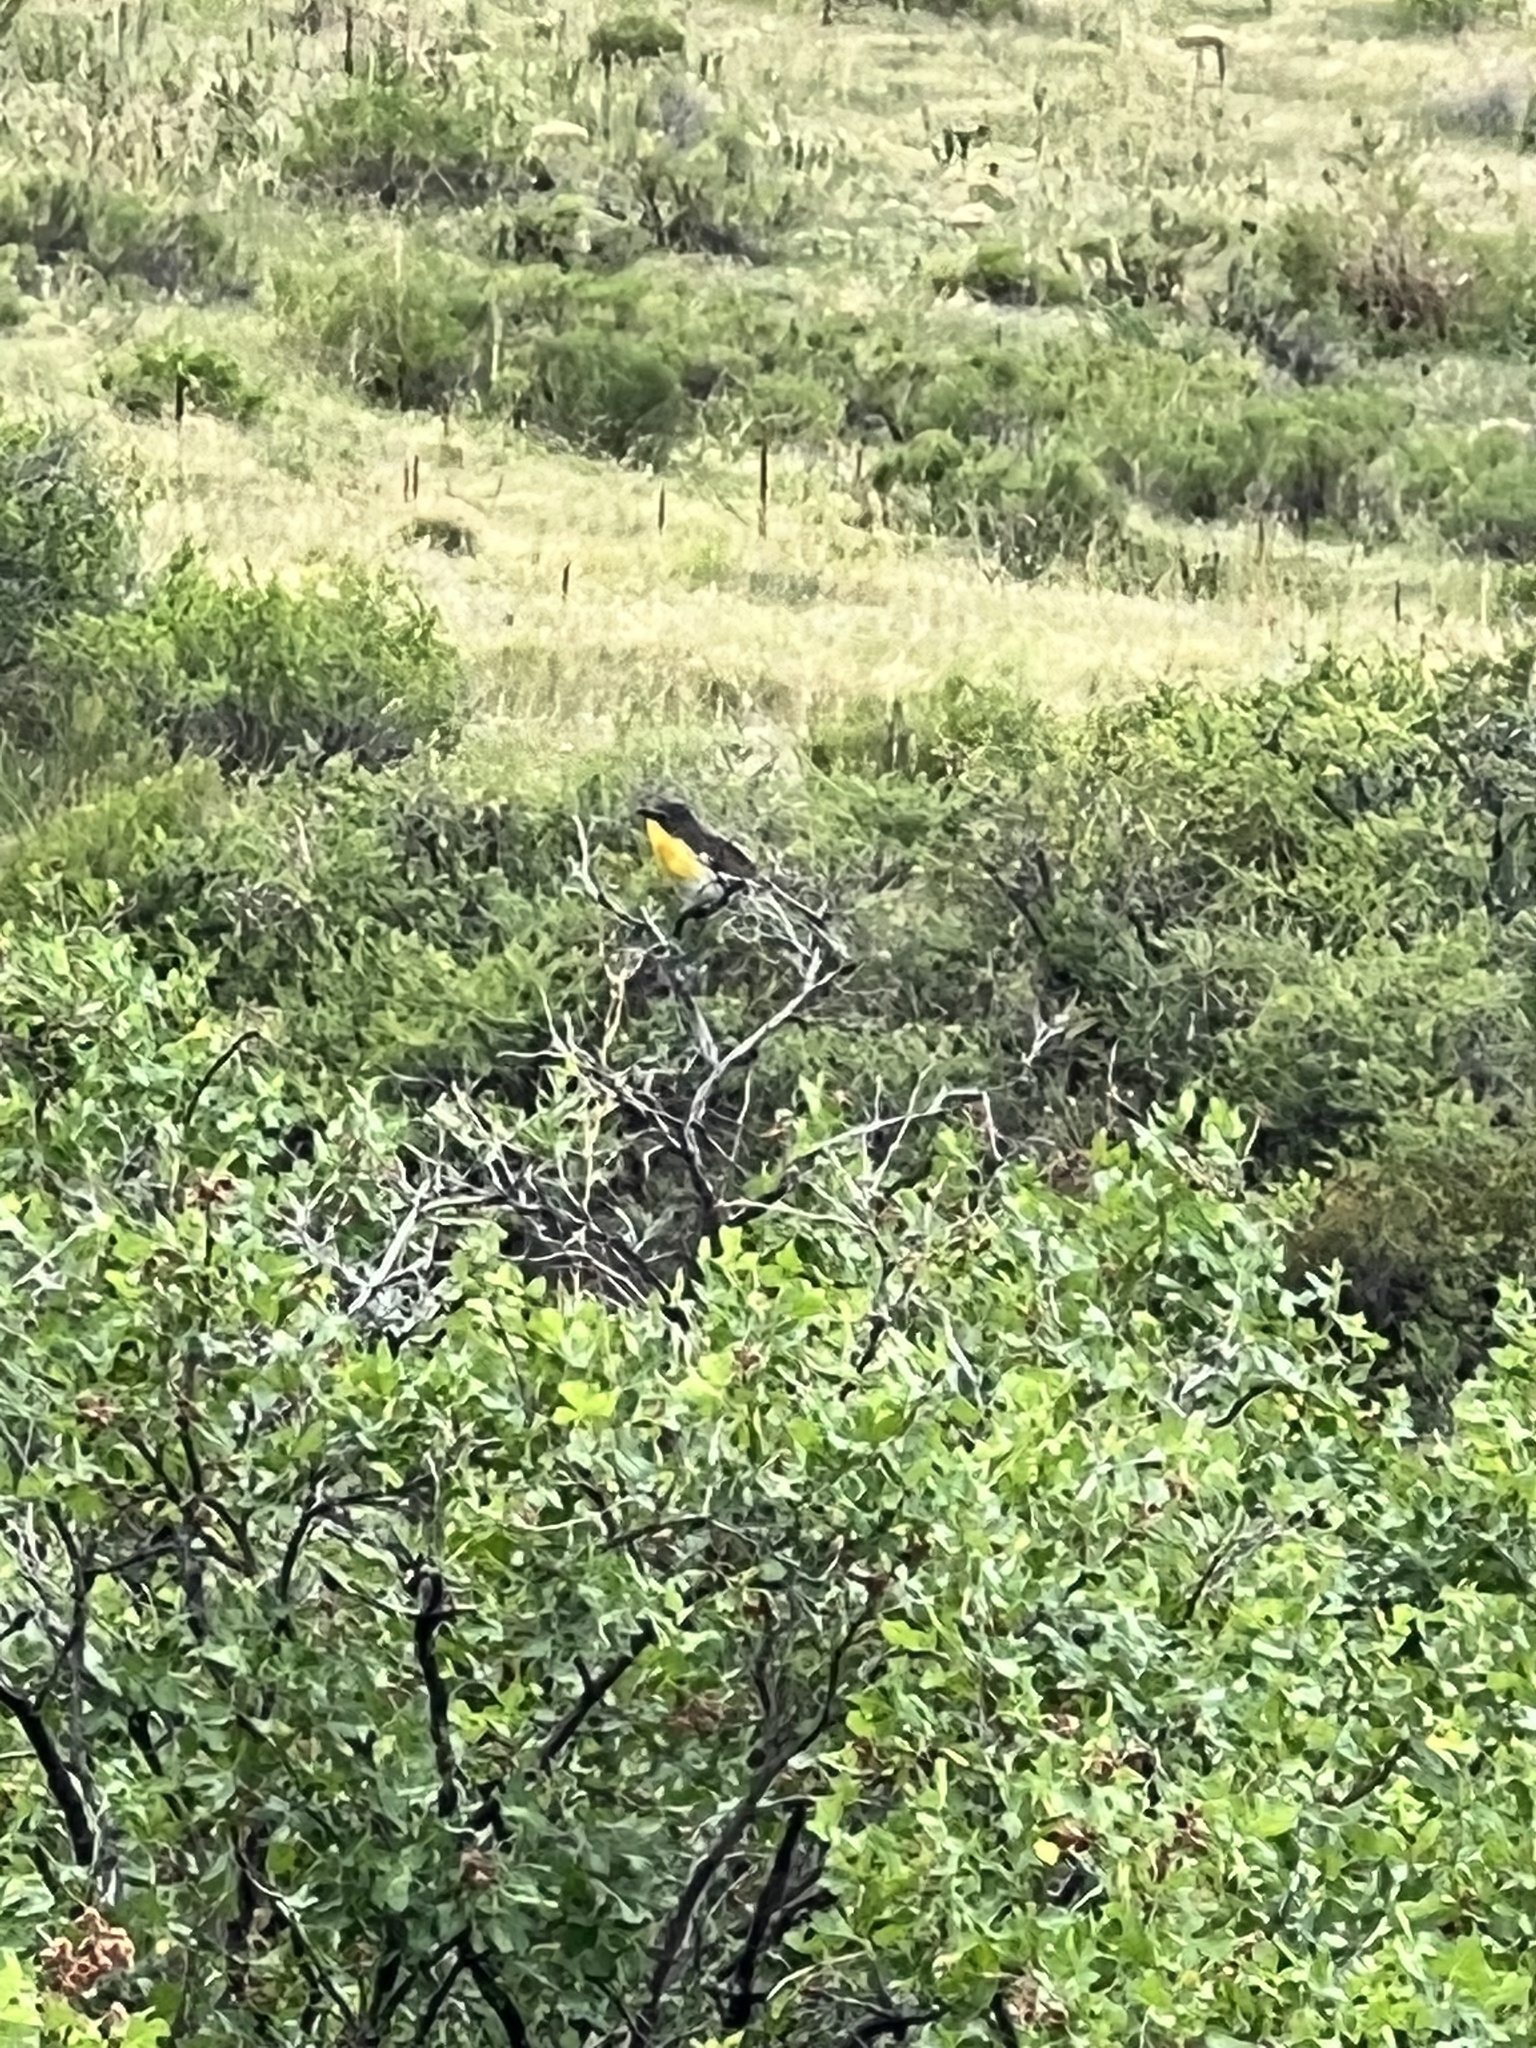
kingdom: Animalia
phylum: Chordata
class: Aves
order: Passeriformes
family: Parulidae
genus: Icteria
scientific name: Icteria virens
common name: Yellow-breasted chat
